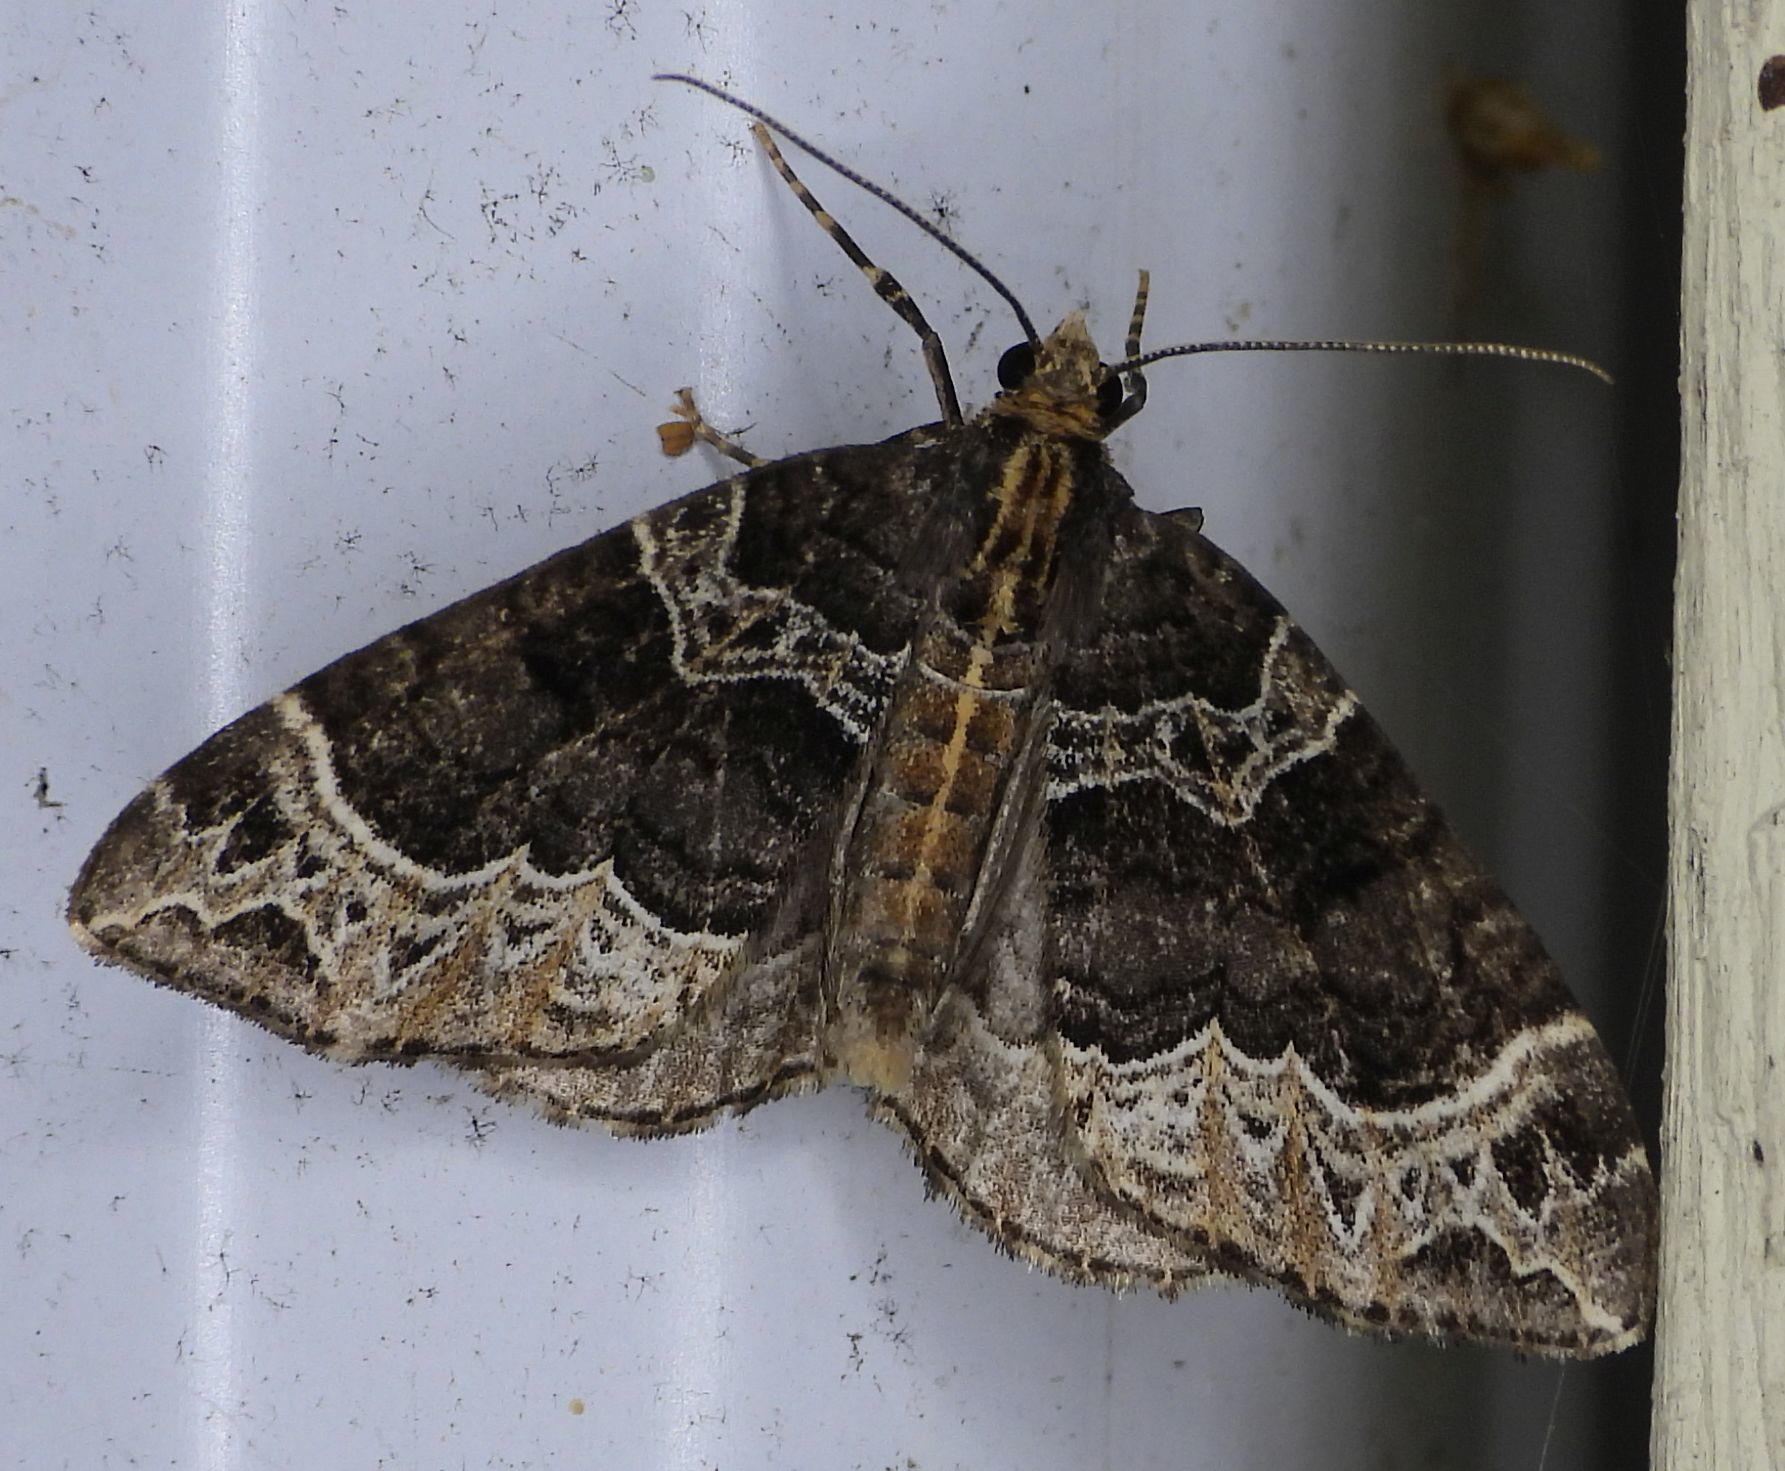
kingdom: Animalia
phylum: Arthropoda
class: Insecta
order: Lepidoptera
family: Geometridae
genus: Ecliptopera
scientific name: Ecliptopera silaceata
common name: Small phoenix
